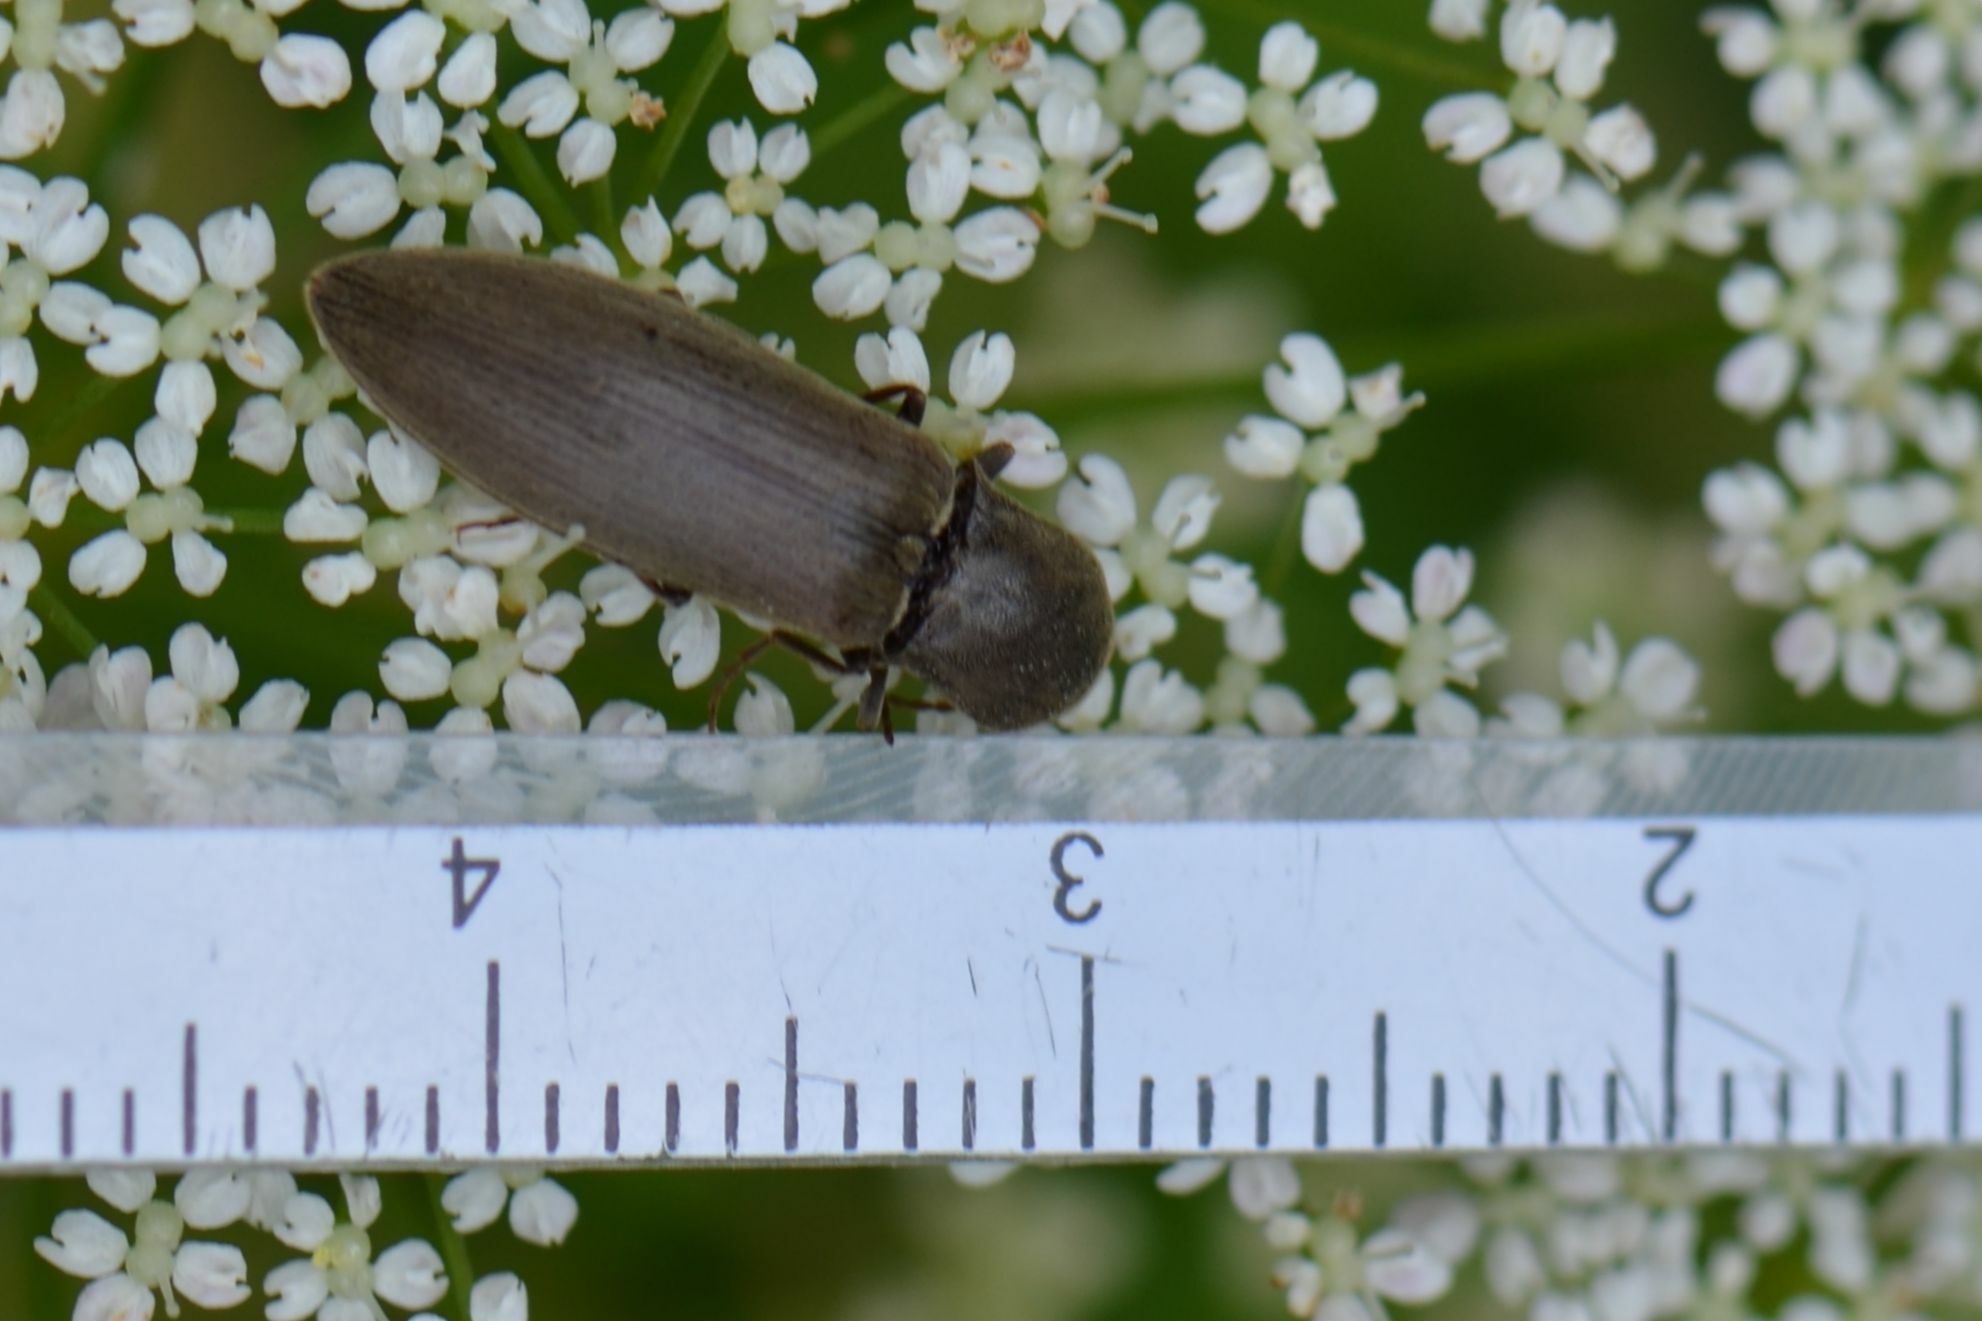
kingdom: Animalia
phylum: Arthropoda
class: Insecta
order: Coleoptera
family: Elateridae
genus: Agriotes
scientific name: Agriotes pilosellus
